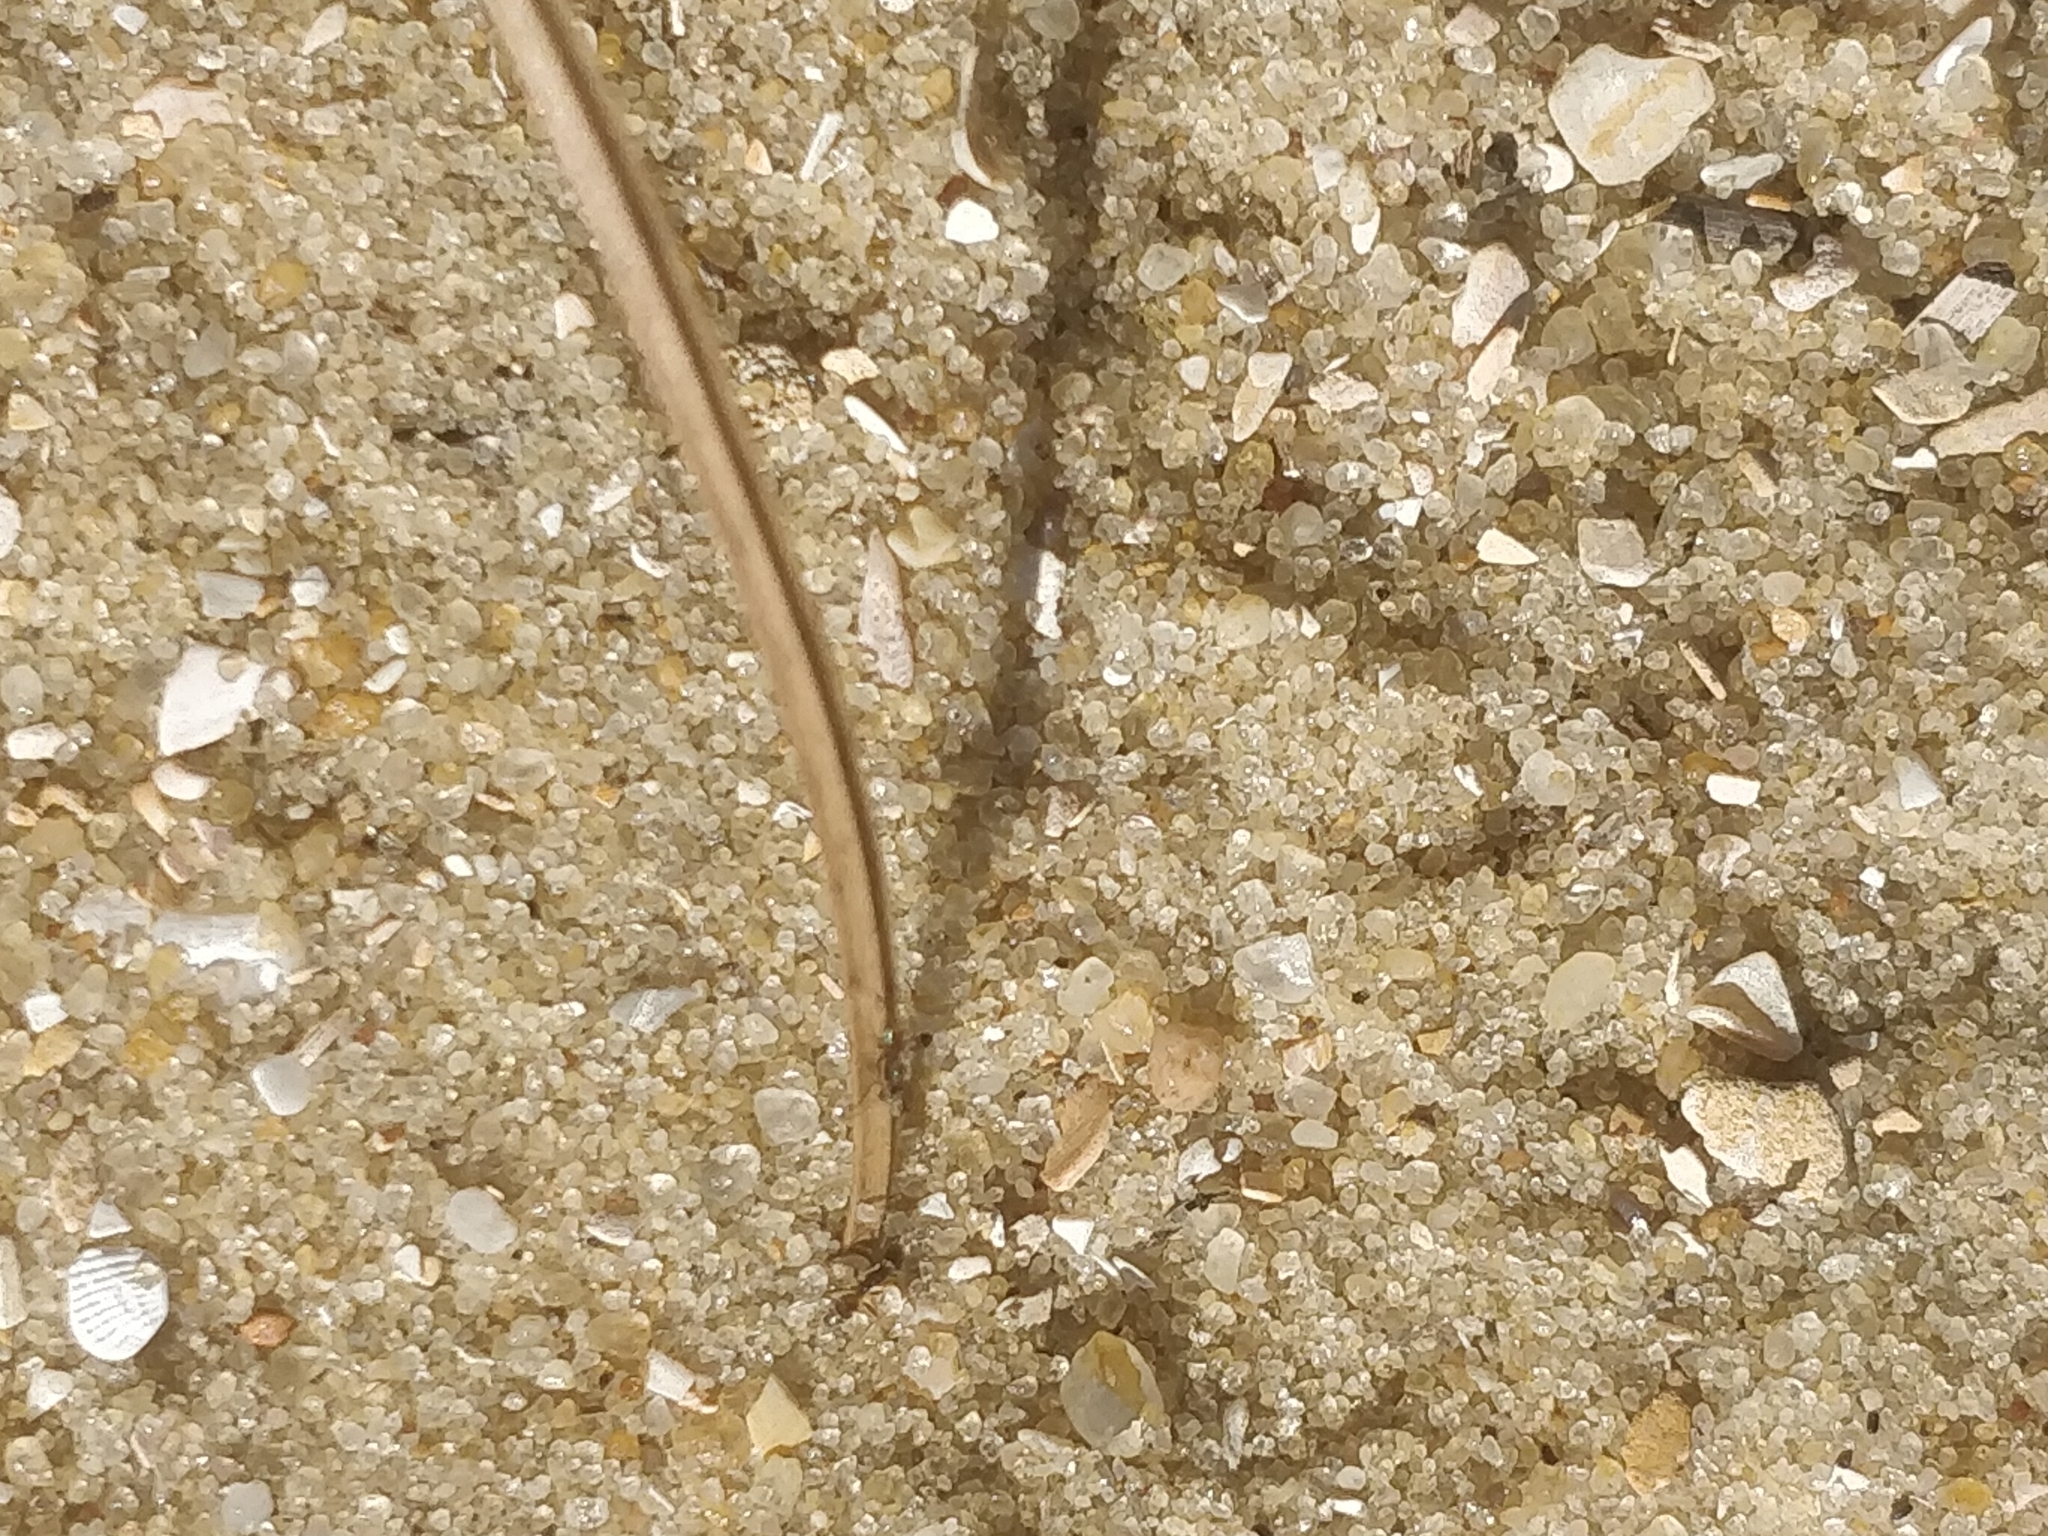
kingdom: Animalia
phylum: Arthropoda
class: Insecta
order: Hymenoptera
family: Formicidae
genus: Forelius
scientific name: Forelius pruinosus
